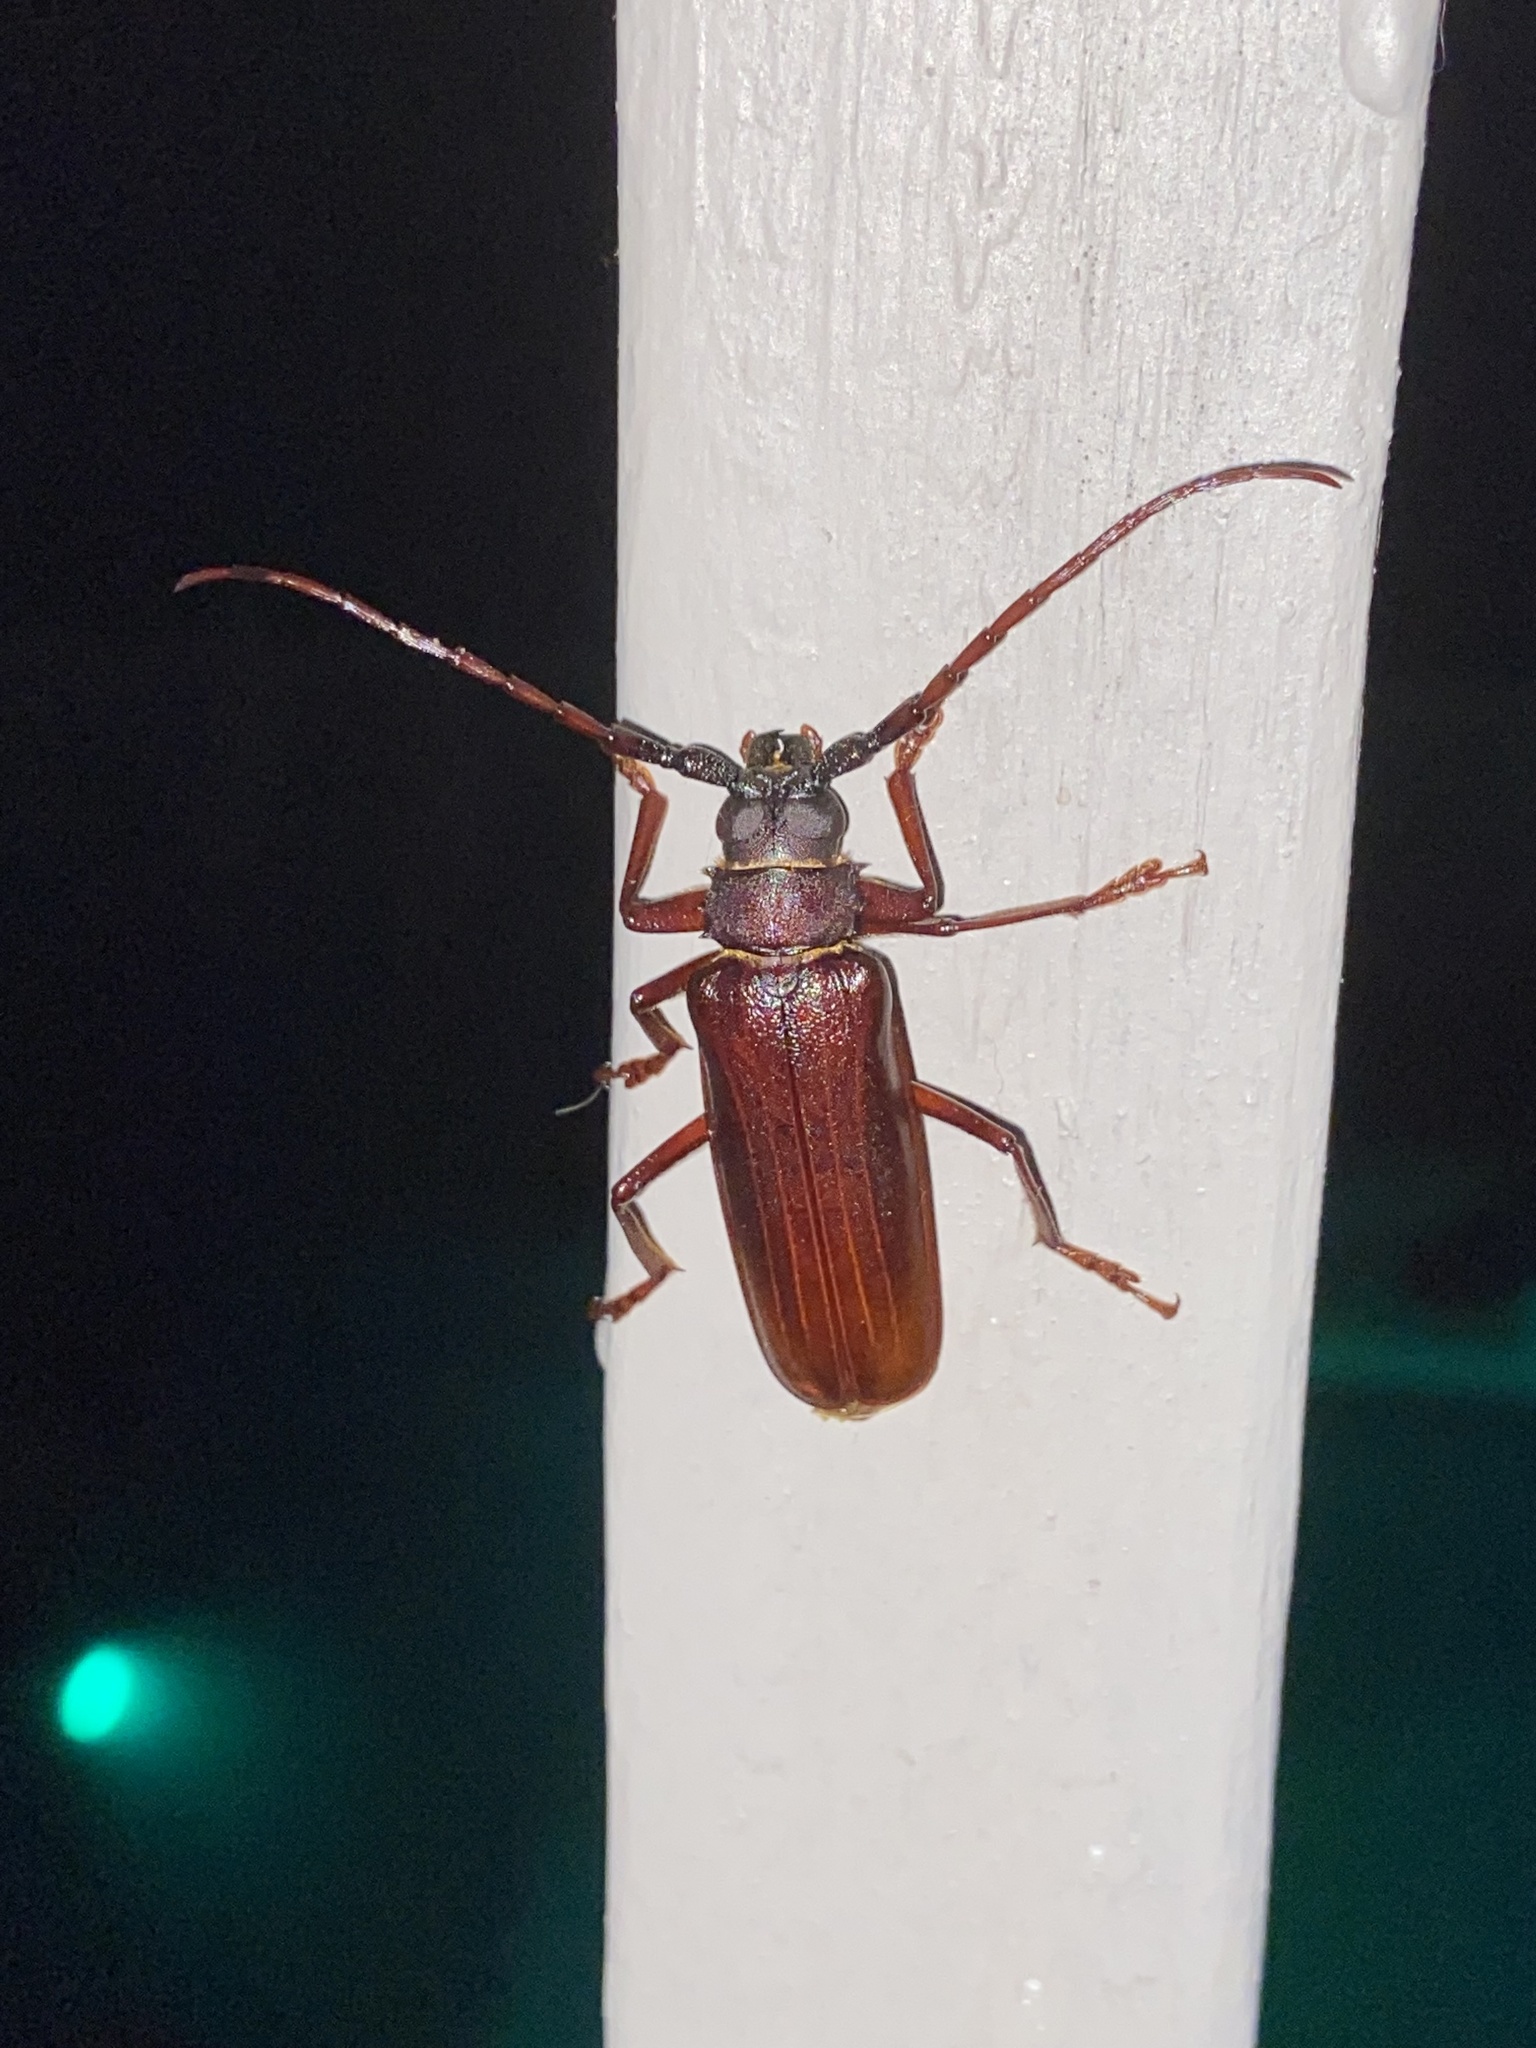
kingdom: Animalia
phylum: Arthropoda
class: Insecta
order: Coleoptera
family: Cerambycidae
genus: Orthosoma
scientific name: Orthosoma brunneum
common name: Brown prionid beetle
